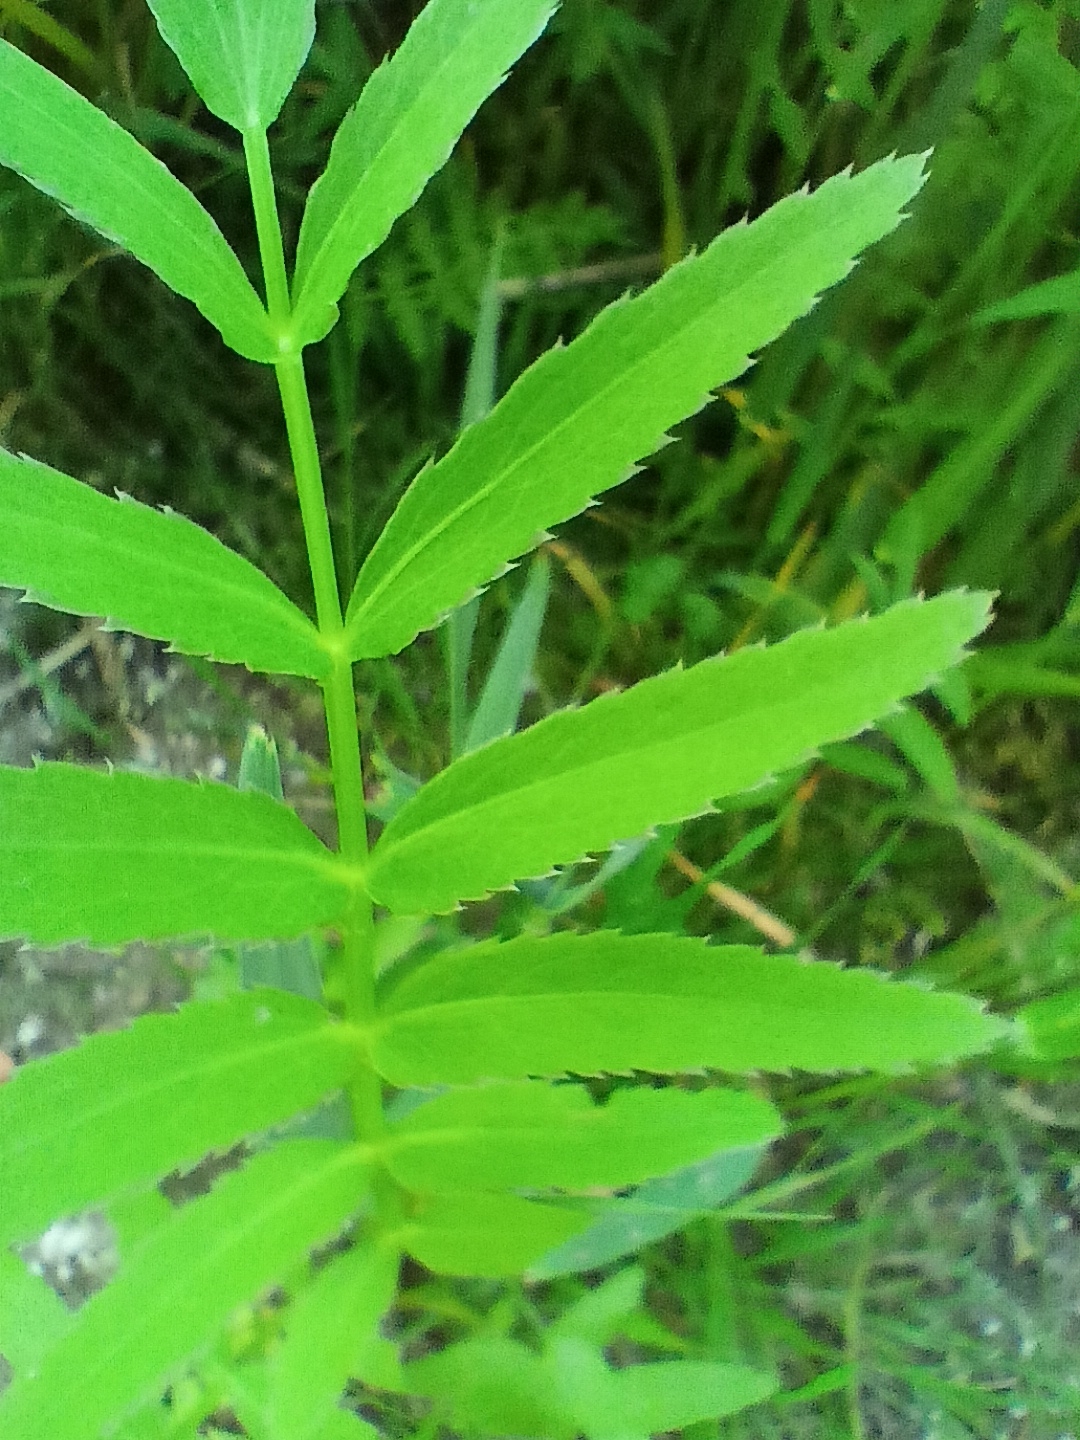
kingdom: Plantae
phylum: Tracheophyta
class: Magnoliopsida
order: Apiales
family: Apiaceae
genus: Sium
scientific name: Sium latifolium
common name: Greater water-parsnip
